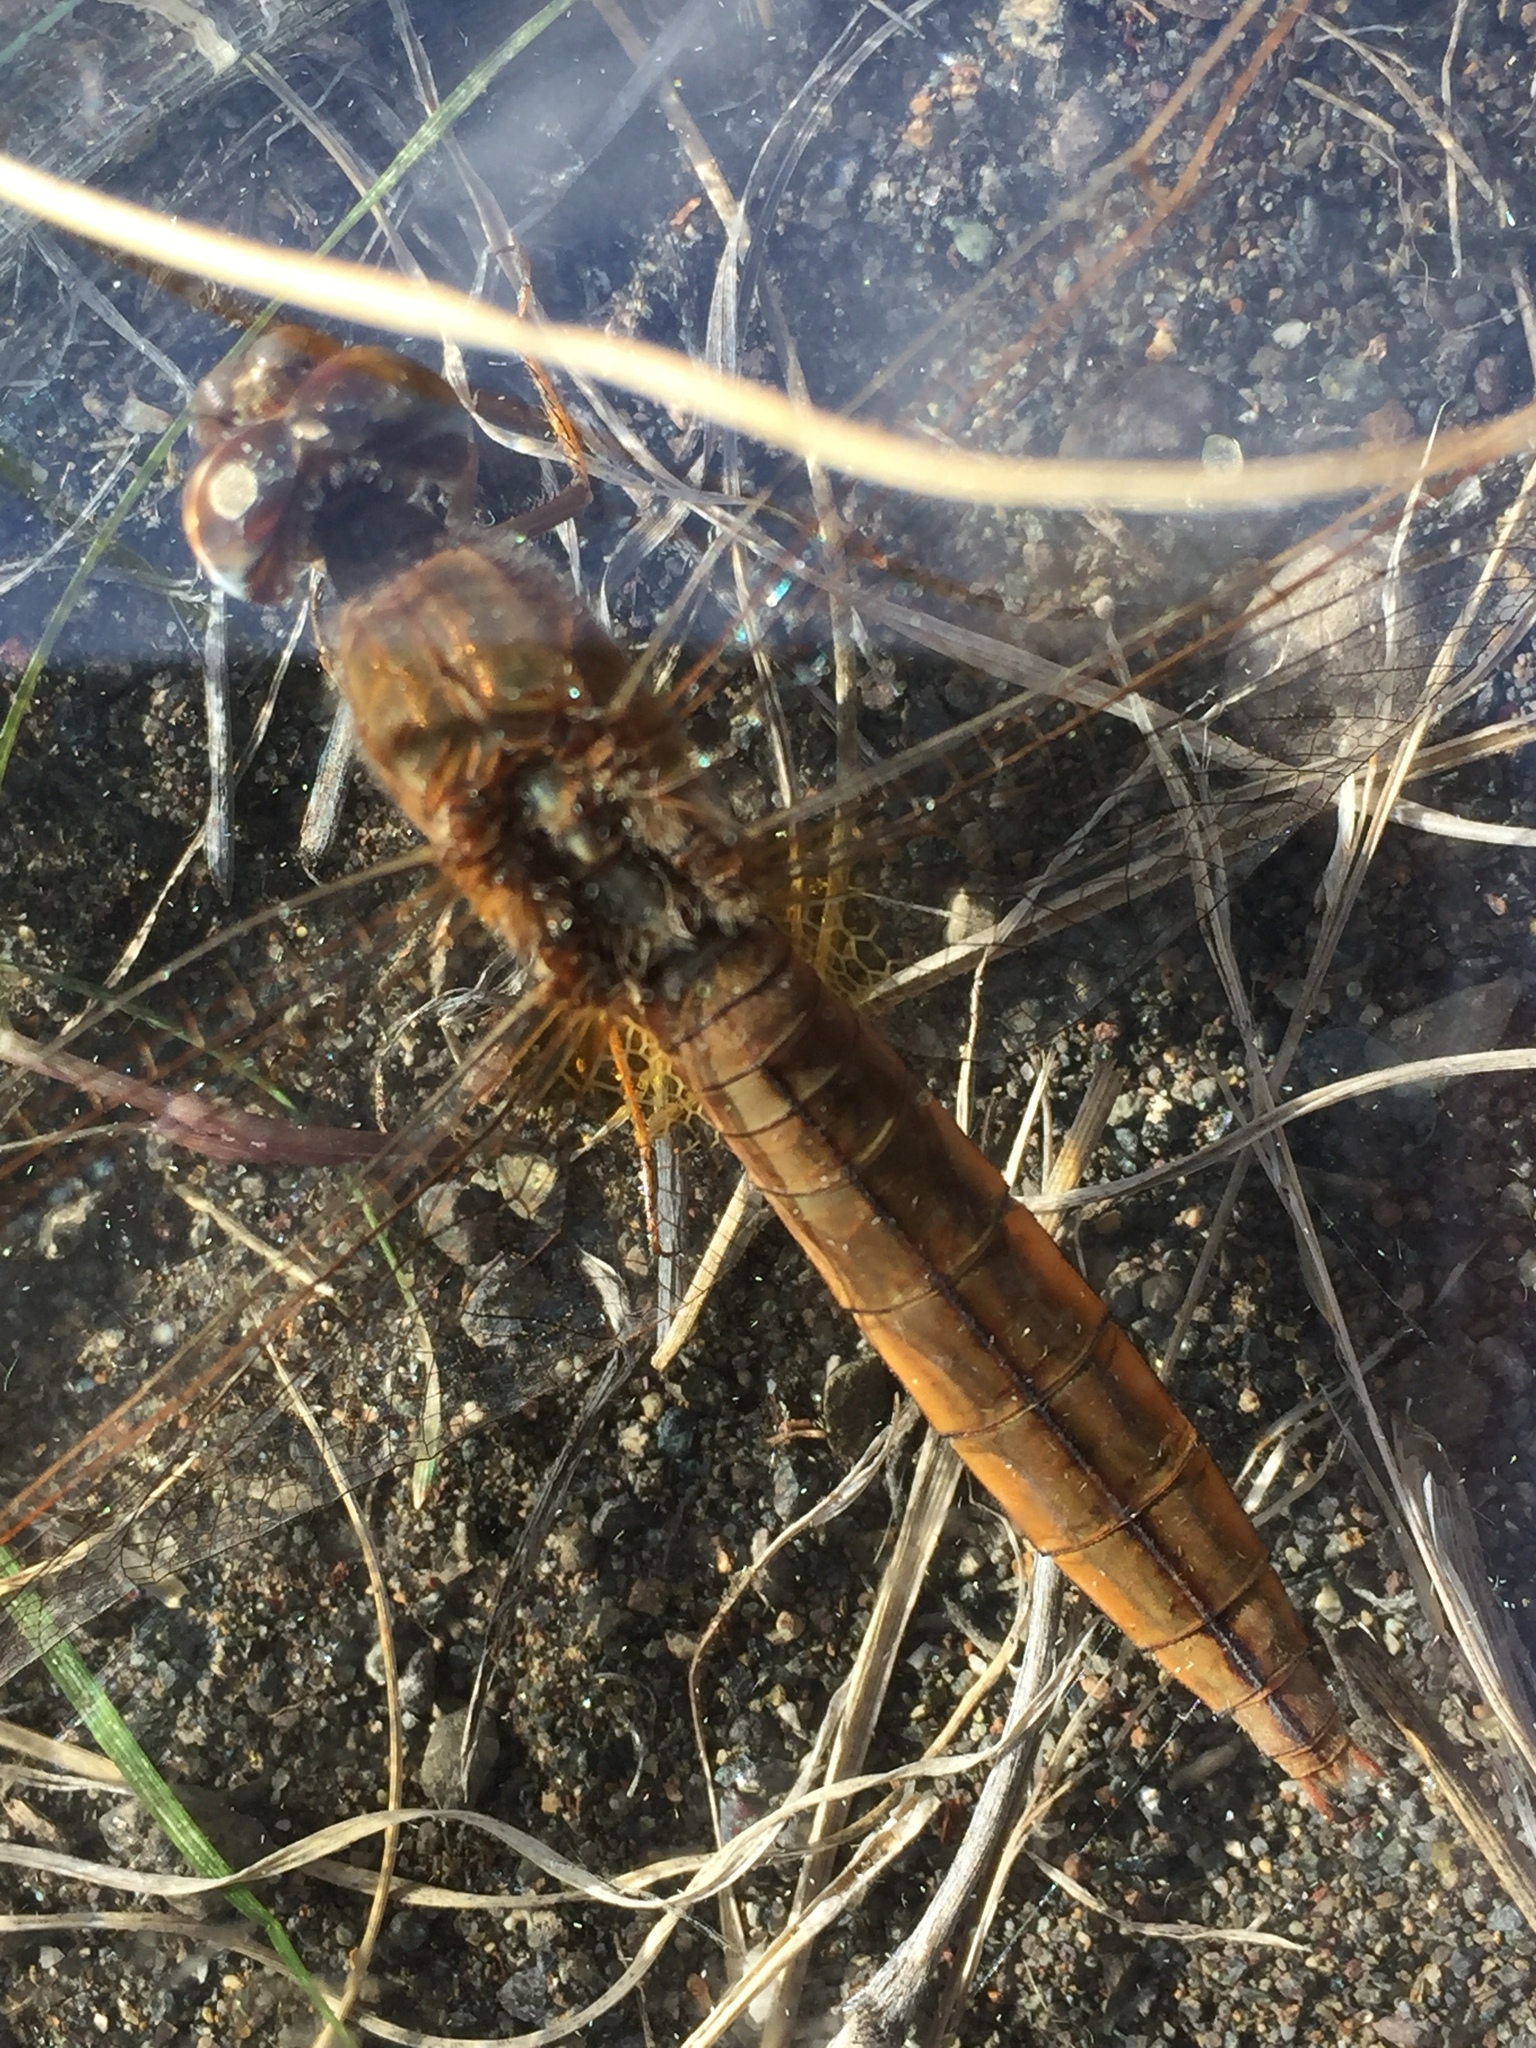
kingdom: Animalia
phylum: Arthropoda
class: Insecta
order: Odonata
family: Libellulidae
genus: Crocothemis
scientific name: Crocothemis erythraea
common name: Scarlet dragonfly
